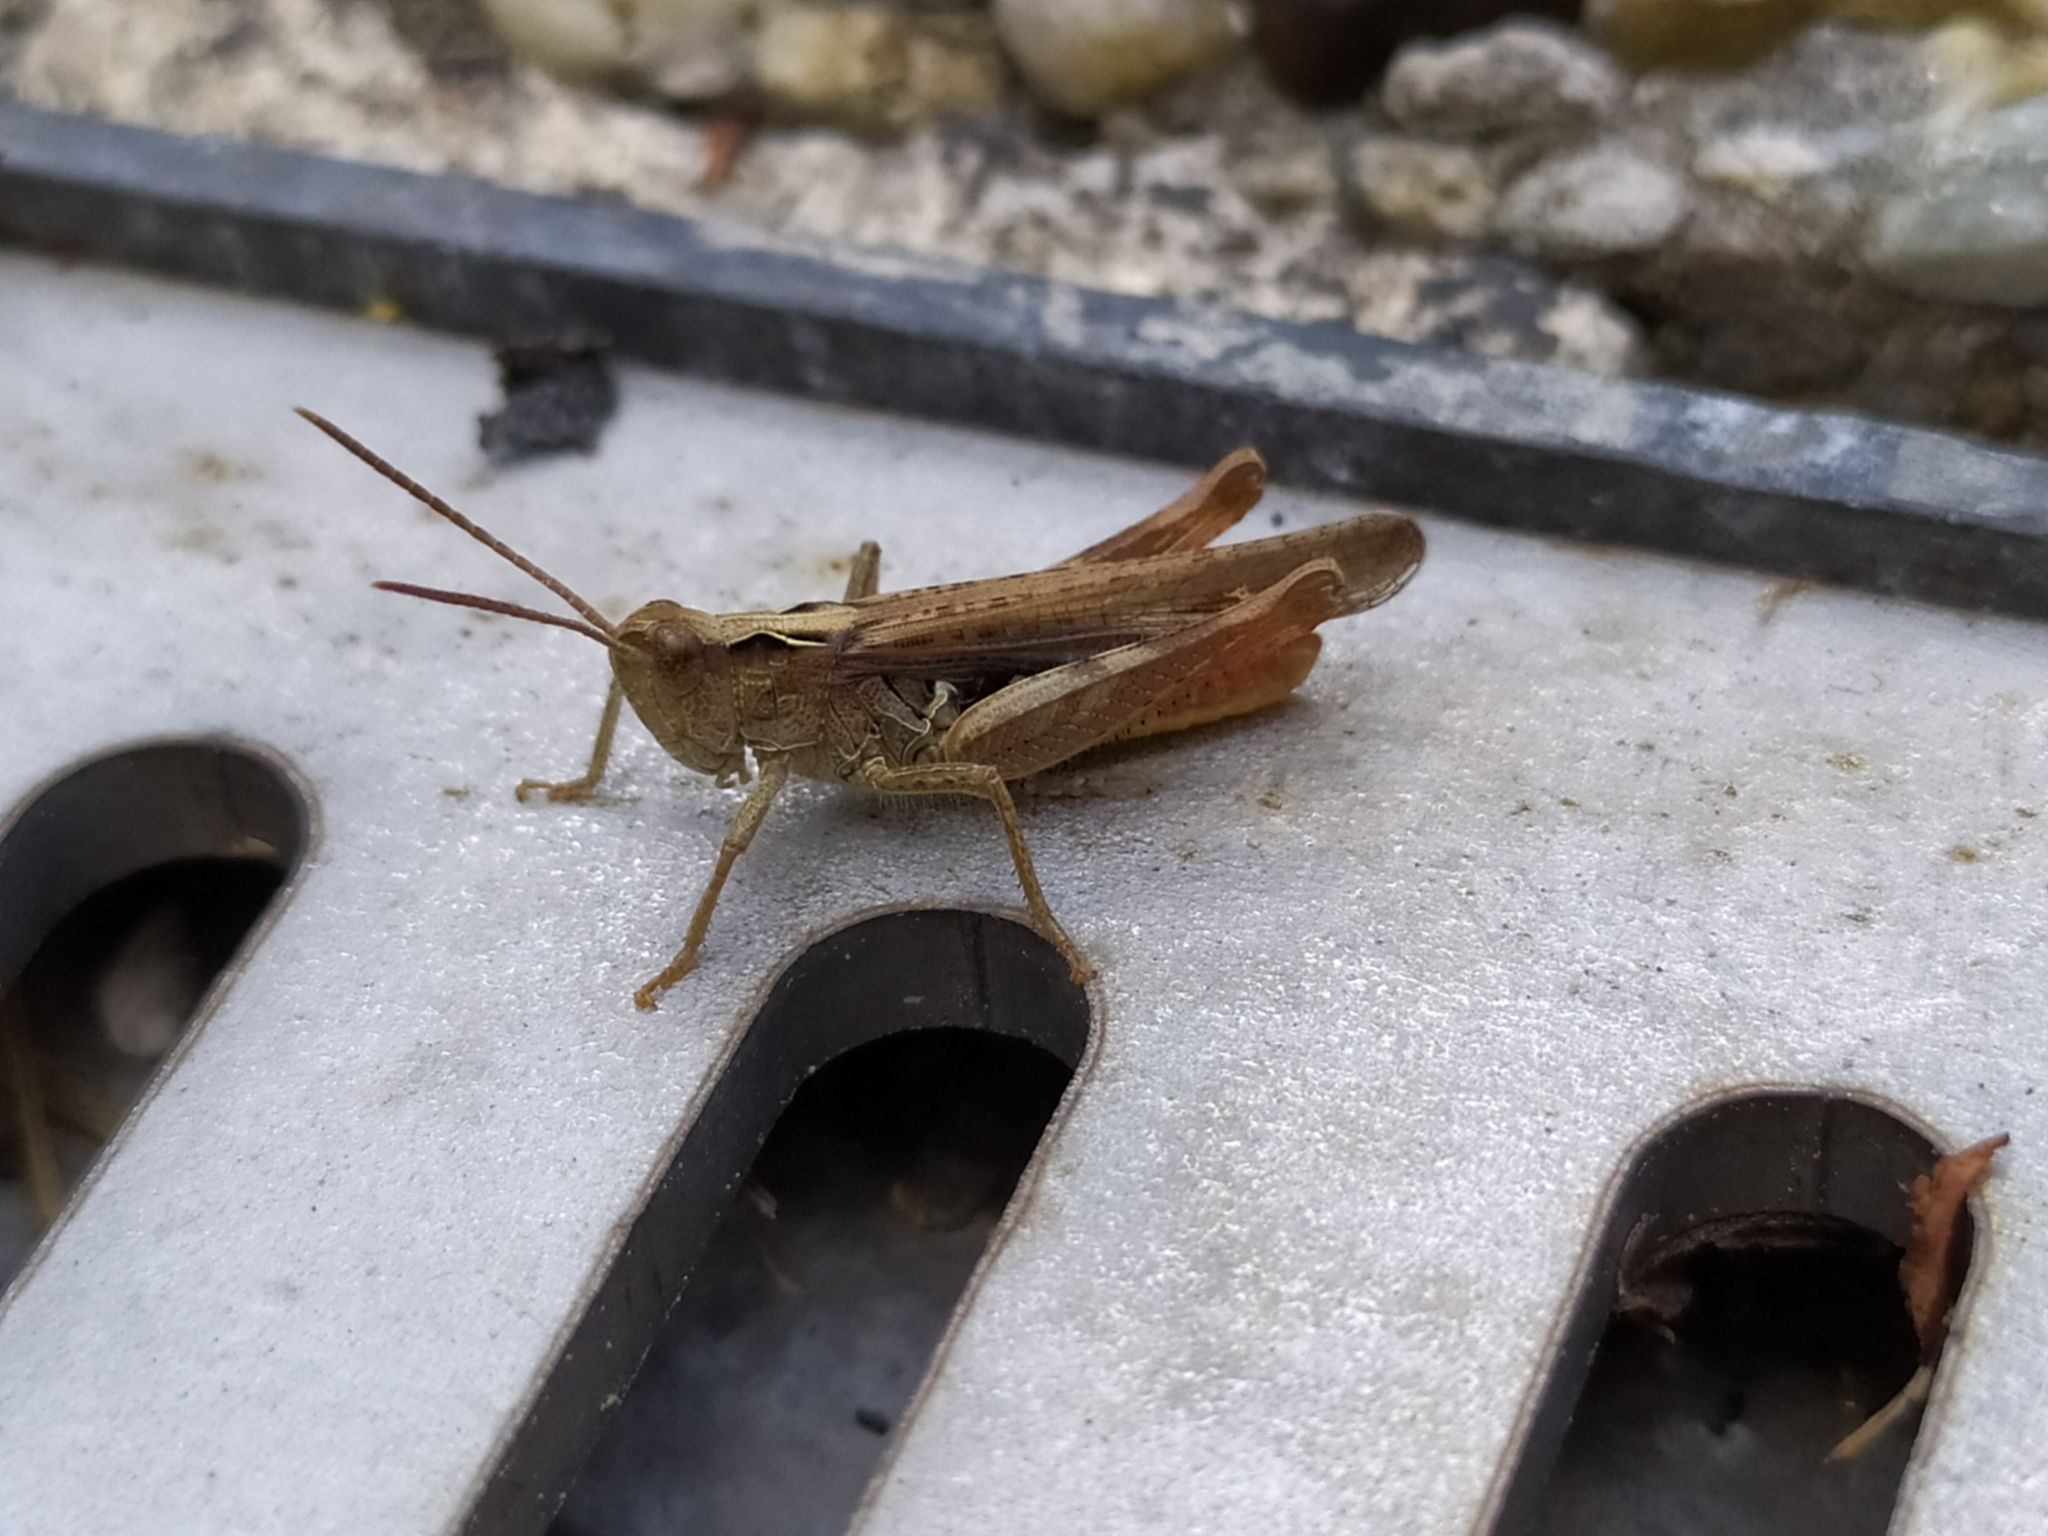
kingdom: Animalia
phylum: Arthropoda
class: Insecta
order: Orthoptera
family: Acrididae
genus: Chorthippus
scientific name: Chorthippus biguttulus
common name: Bow-winged grasshopper
